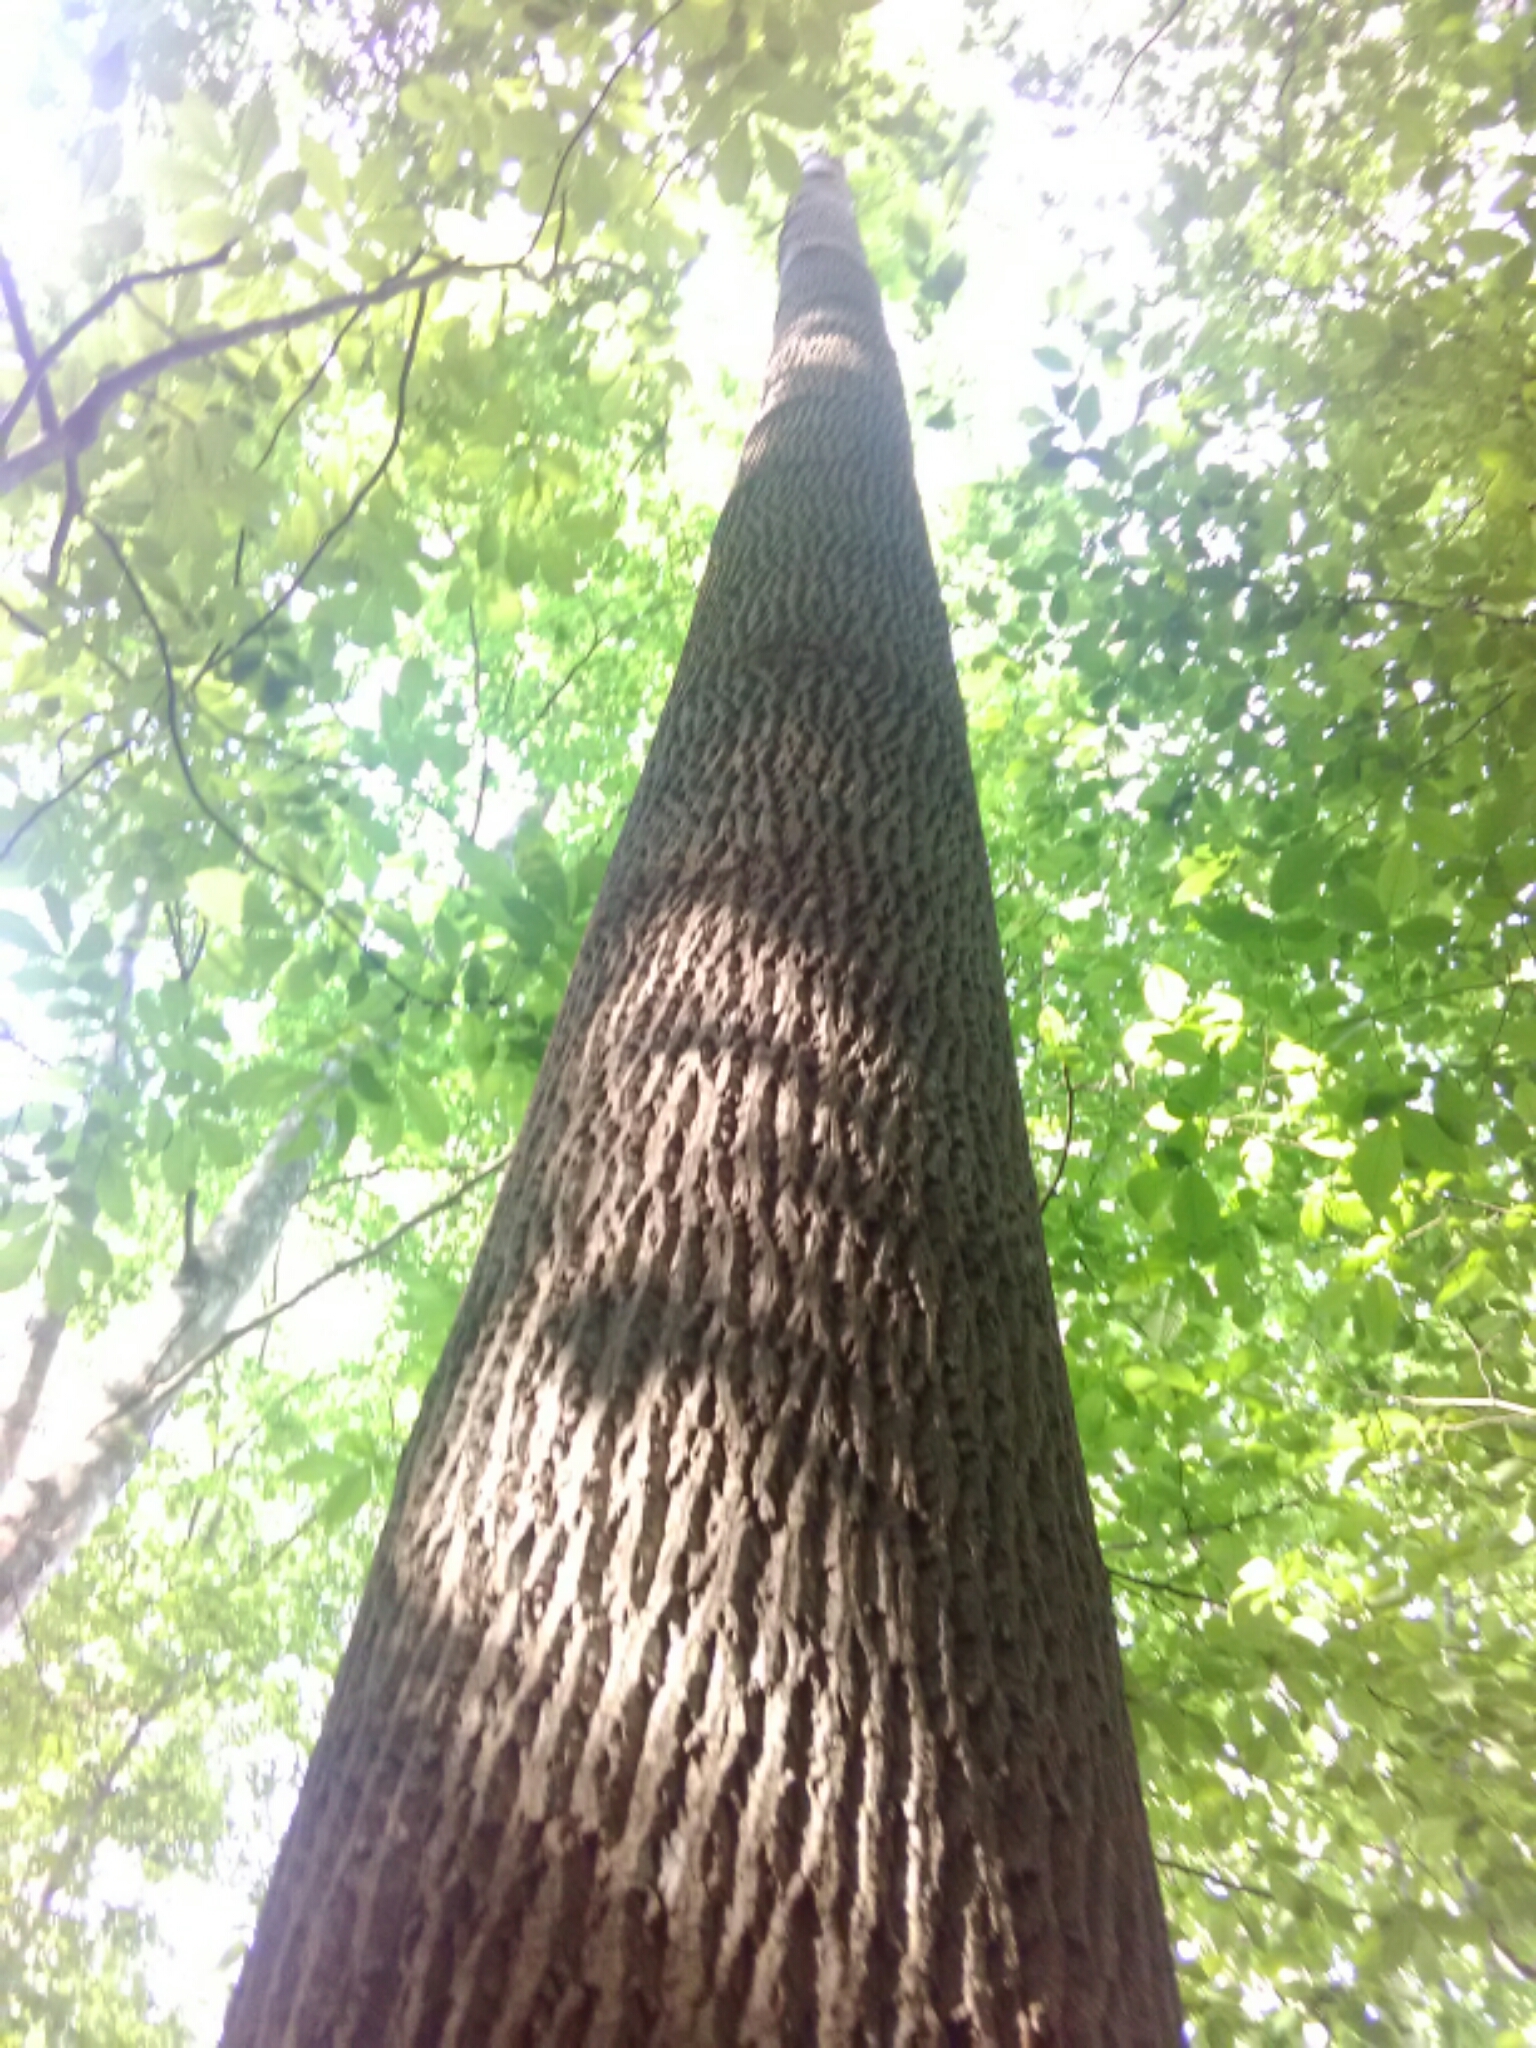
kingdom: Plantae
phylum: Tracheophyta
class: Magnoliopsida
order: Magnoliales
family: Magnoliaceae
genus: Liriodendron
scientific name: Liriodendron tulipifera
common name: Tulip tree
